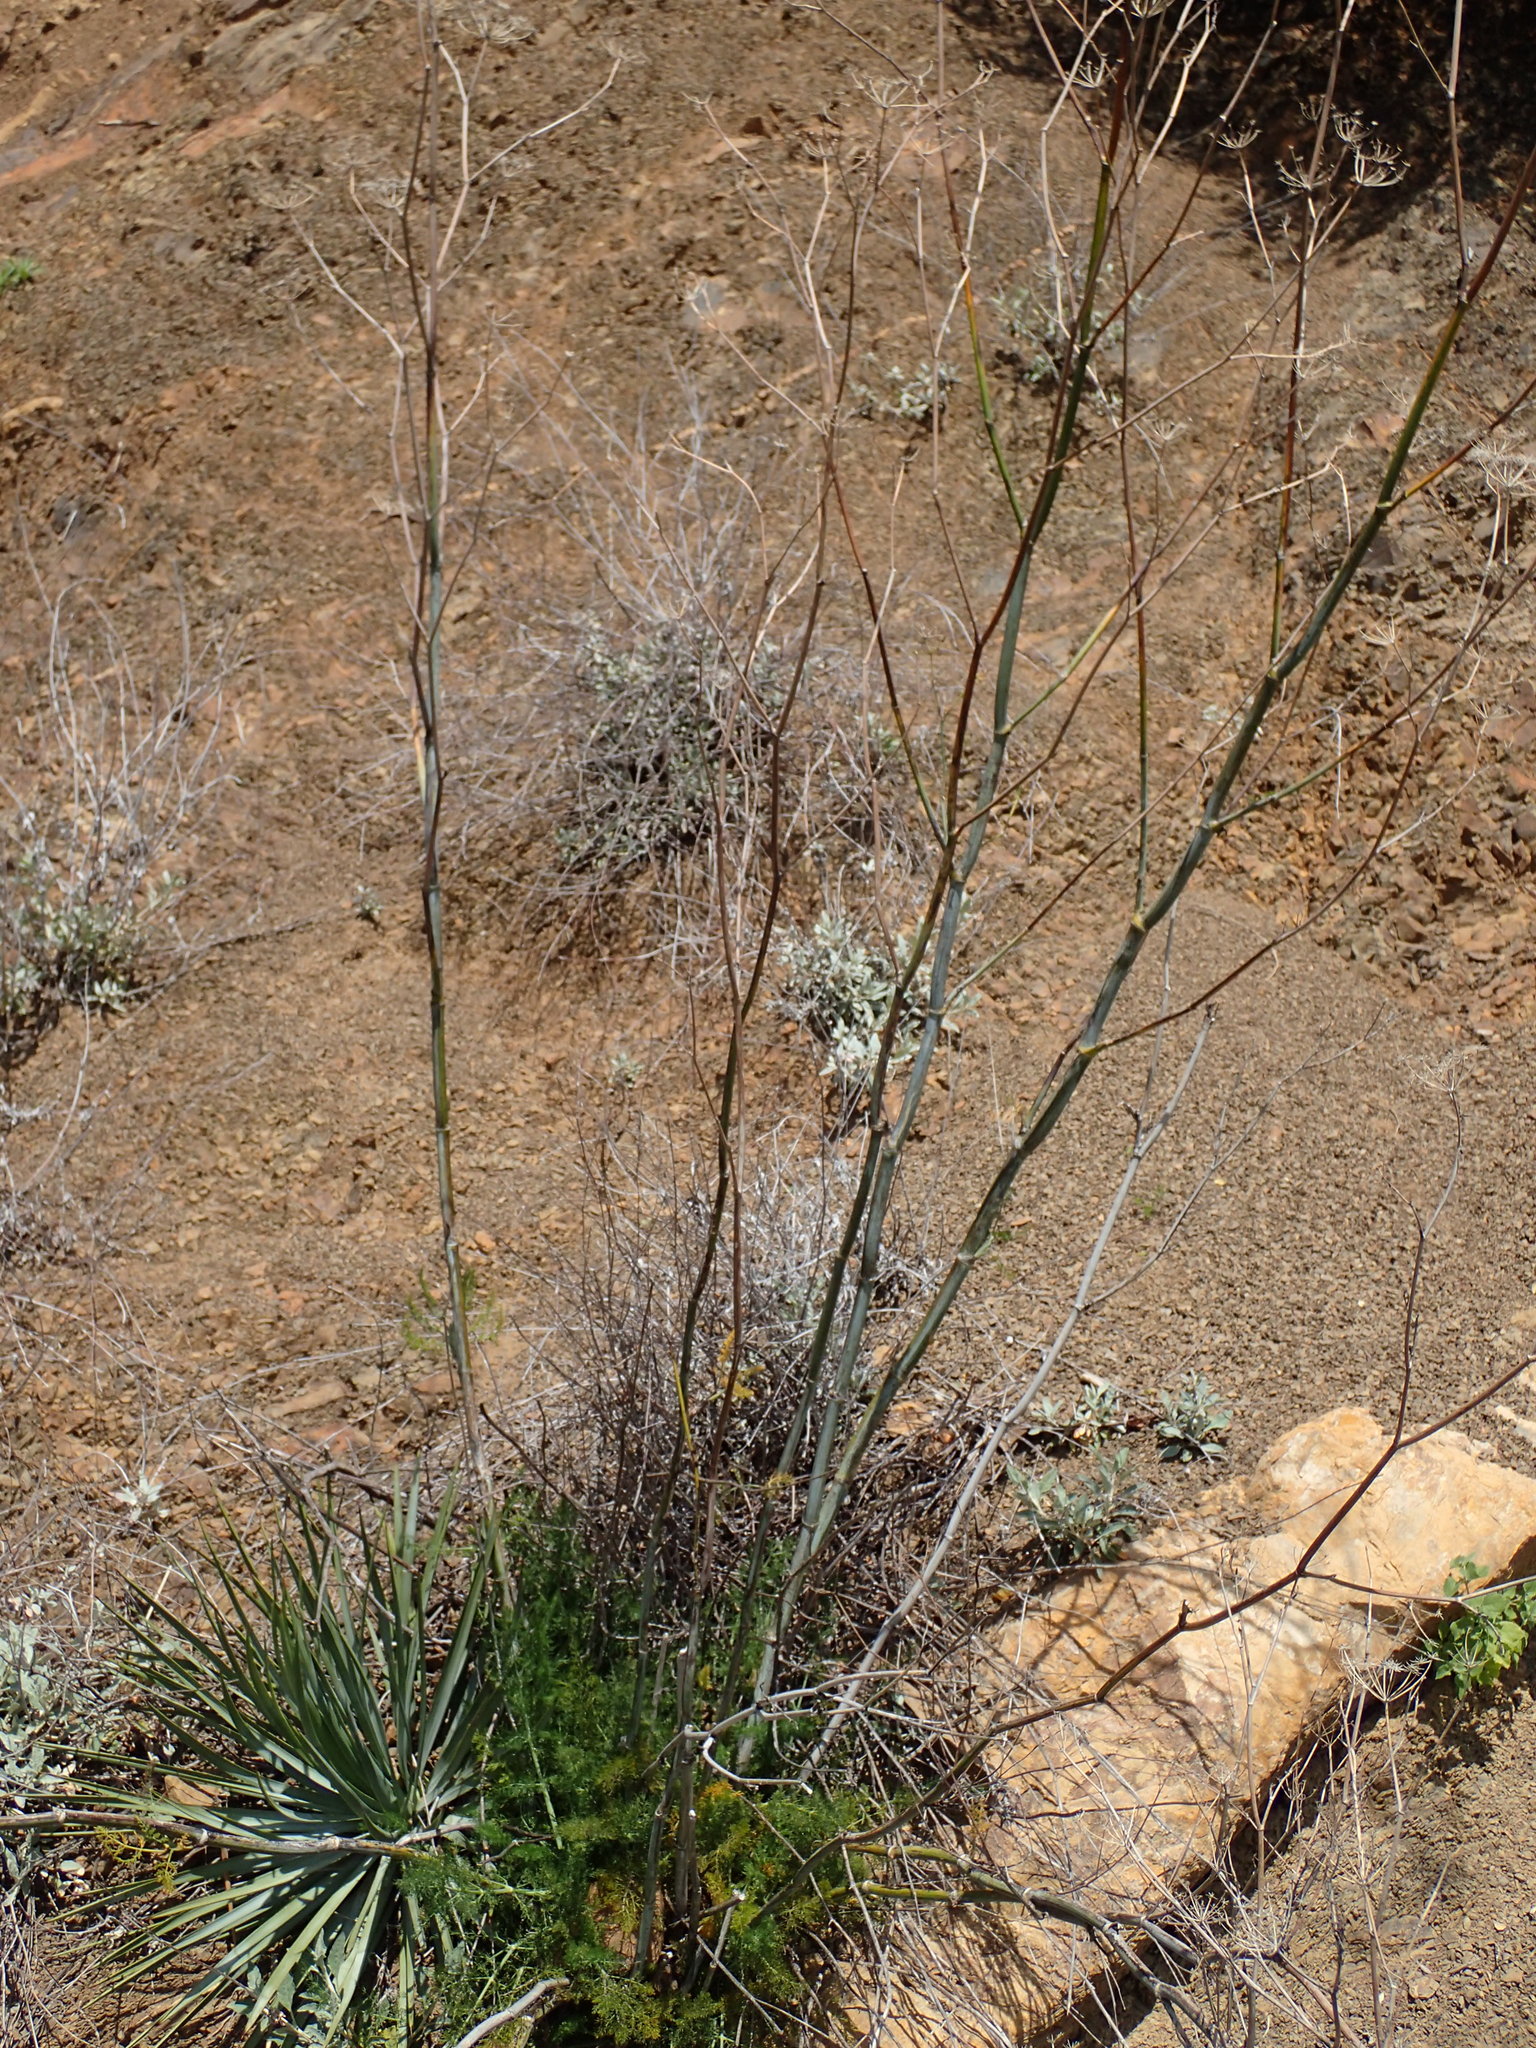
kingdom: Plantae
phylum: Tracheophyta
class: Magnoliopsida
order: Apiales
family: Apiaceae
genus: Foeniculum
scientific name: Foeniculum vulgare
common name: Fennel
